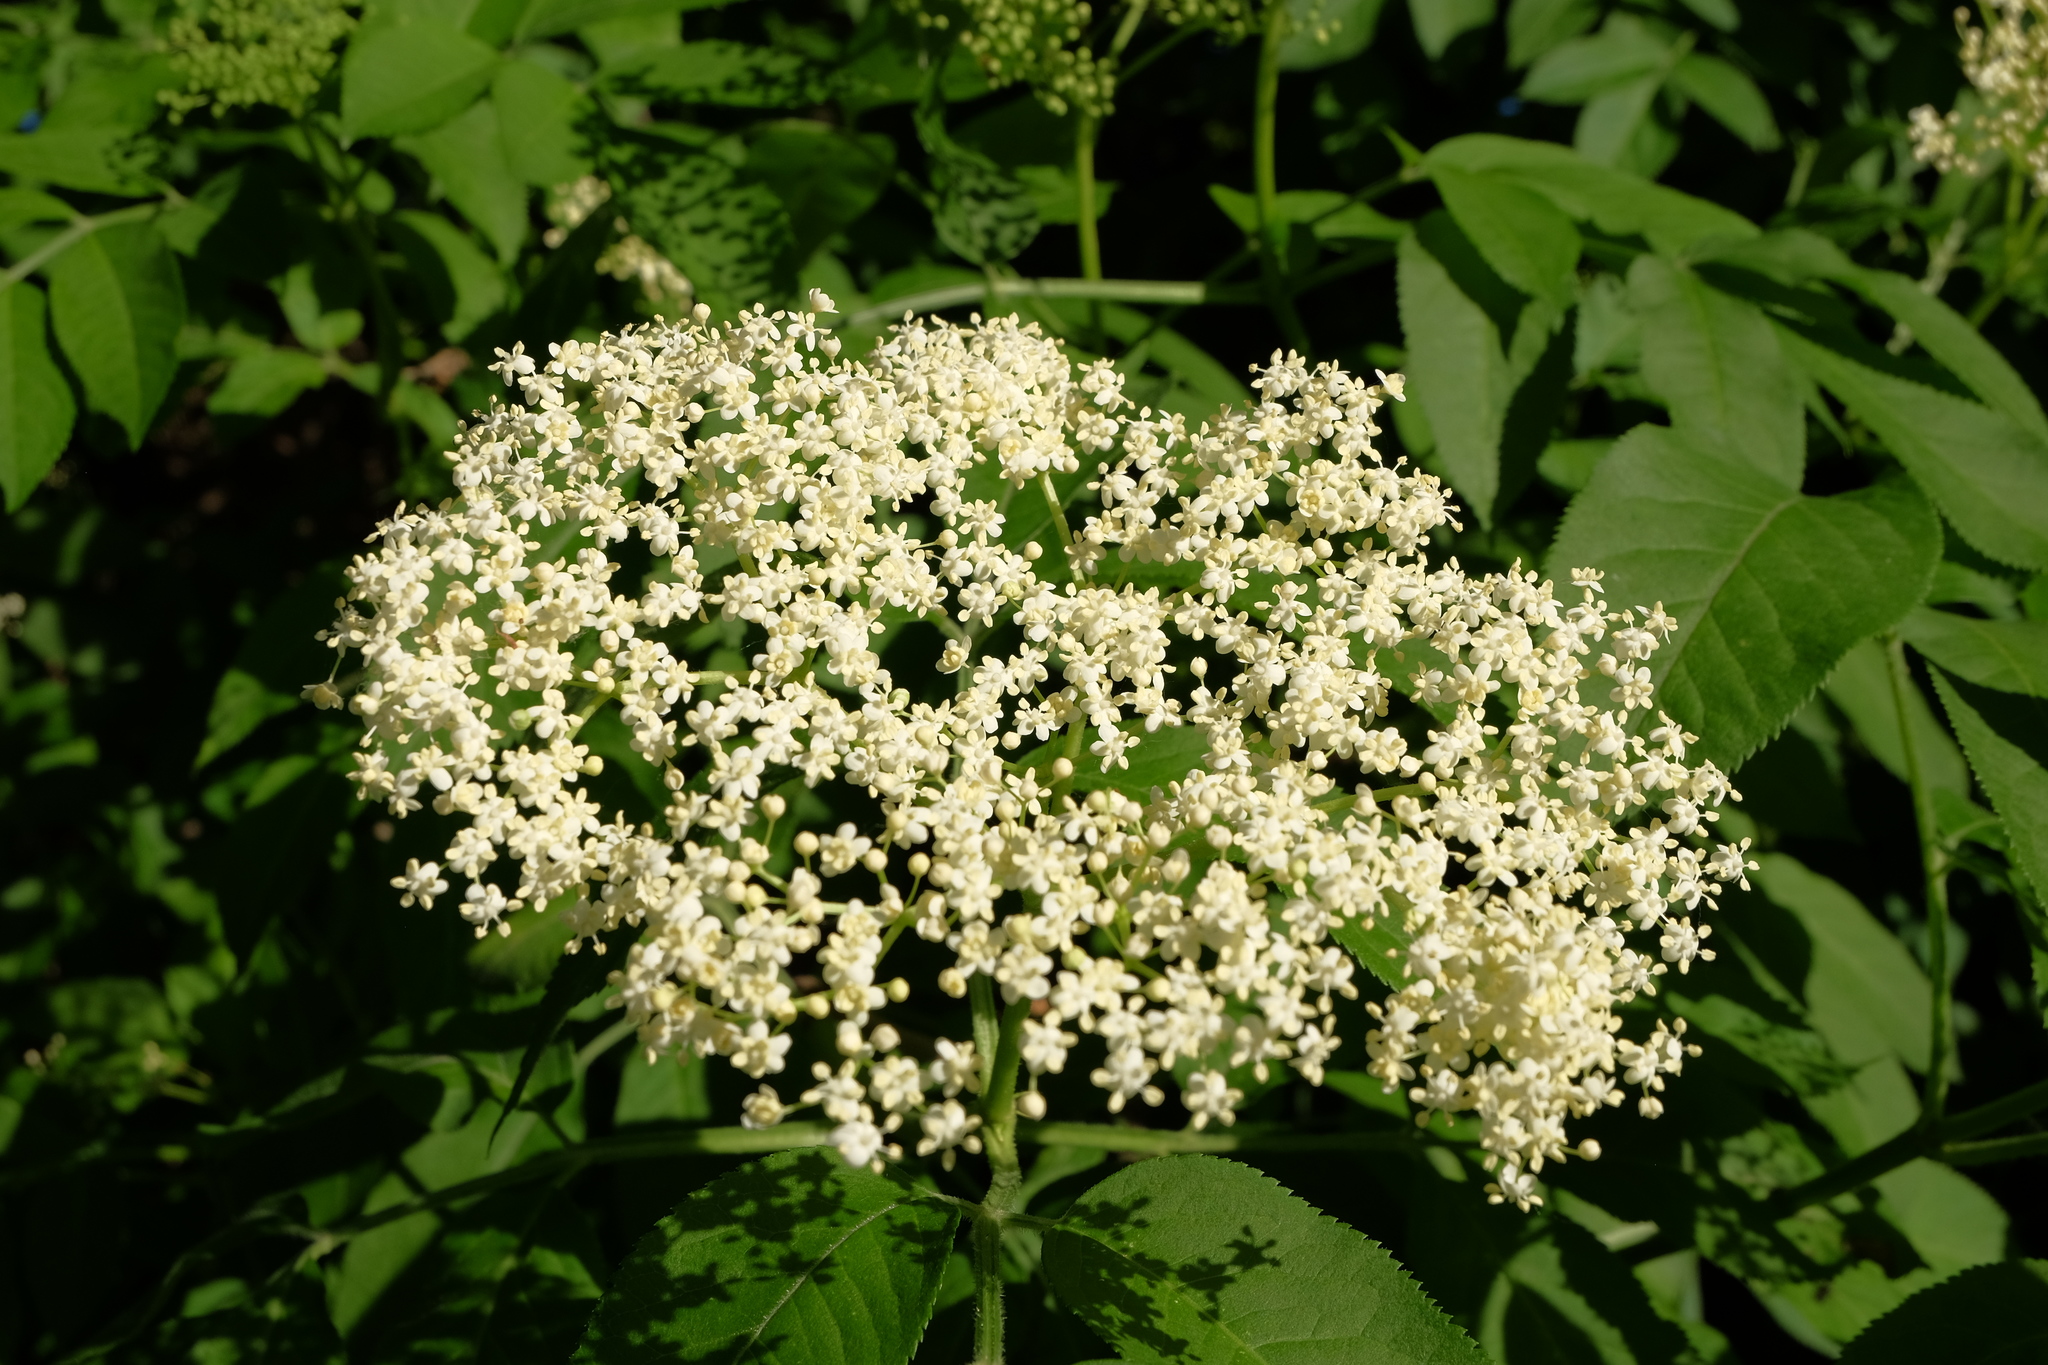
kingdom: Plantae
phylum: Tracheophyta
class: Magnoliopsida
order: Dipsacales
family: Viburnaceae
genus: Sambucus
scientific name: Sambucus nigra
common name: Elder
